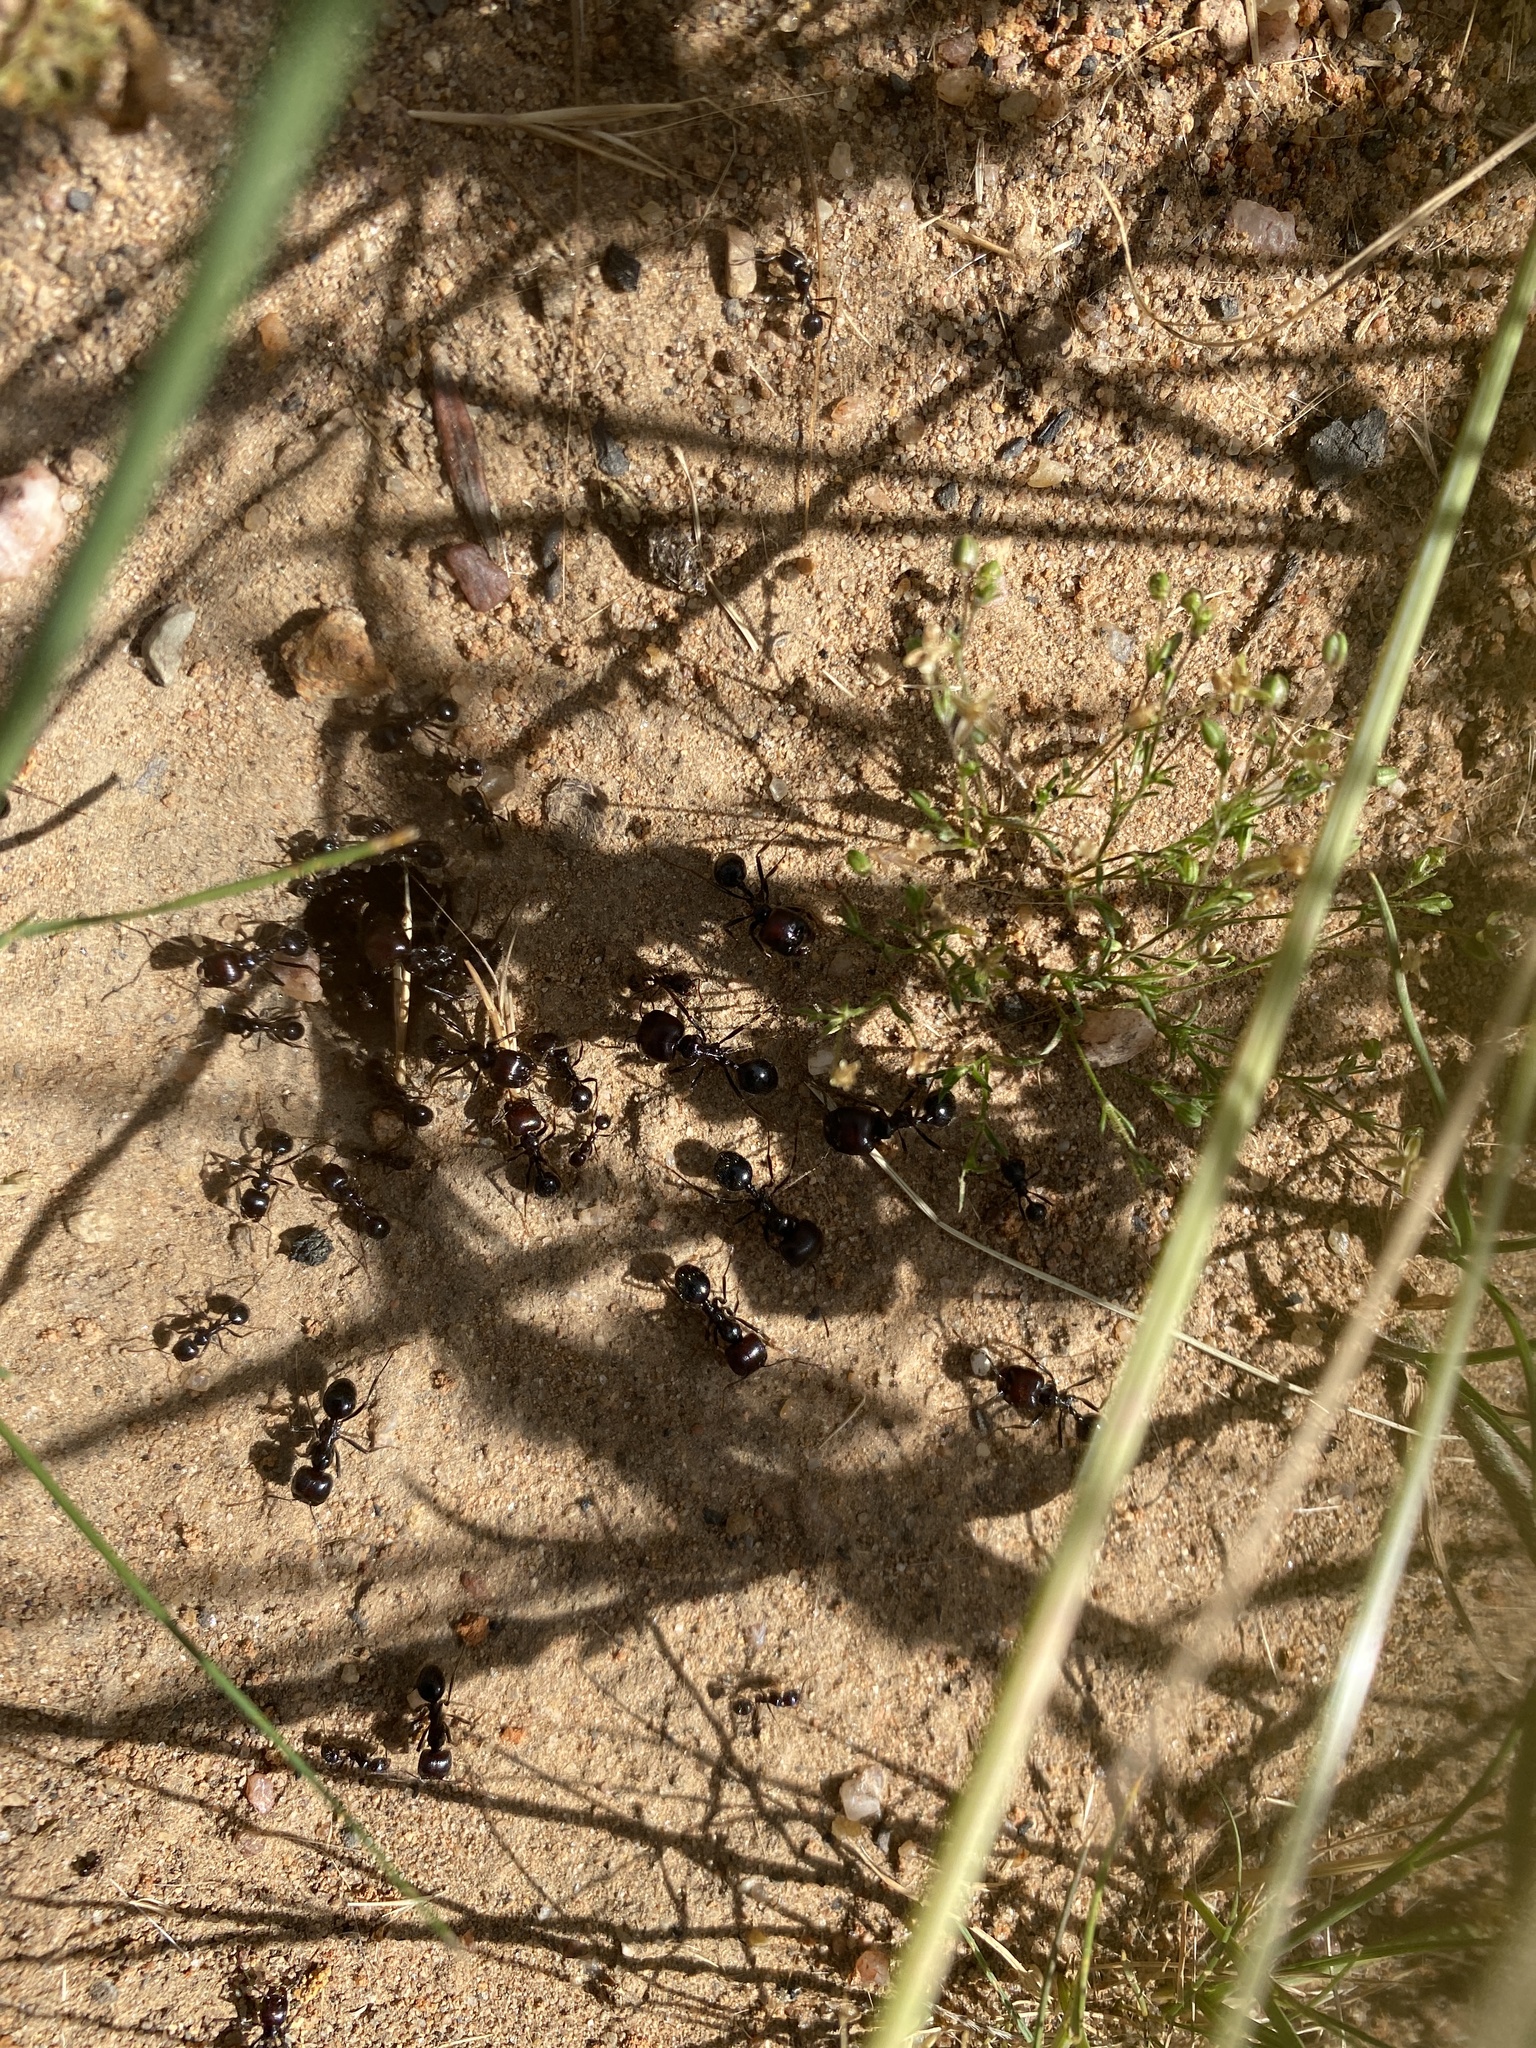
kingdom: Animalia
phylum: Arthropoda
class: Insecta
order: Hymenoptera
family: Formicidae
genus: Messor
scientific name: Messor barbarus
